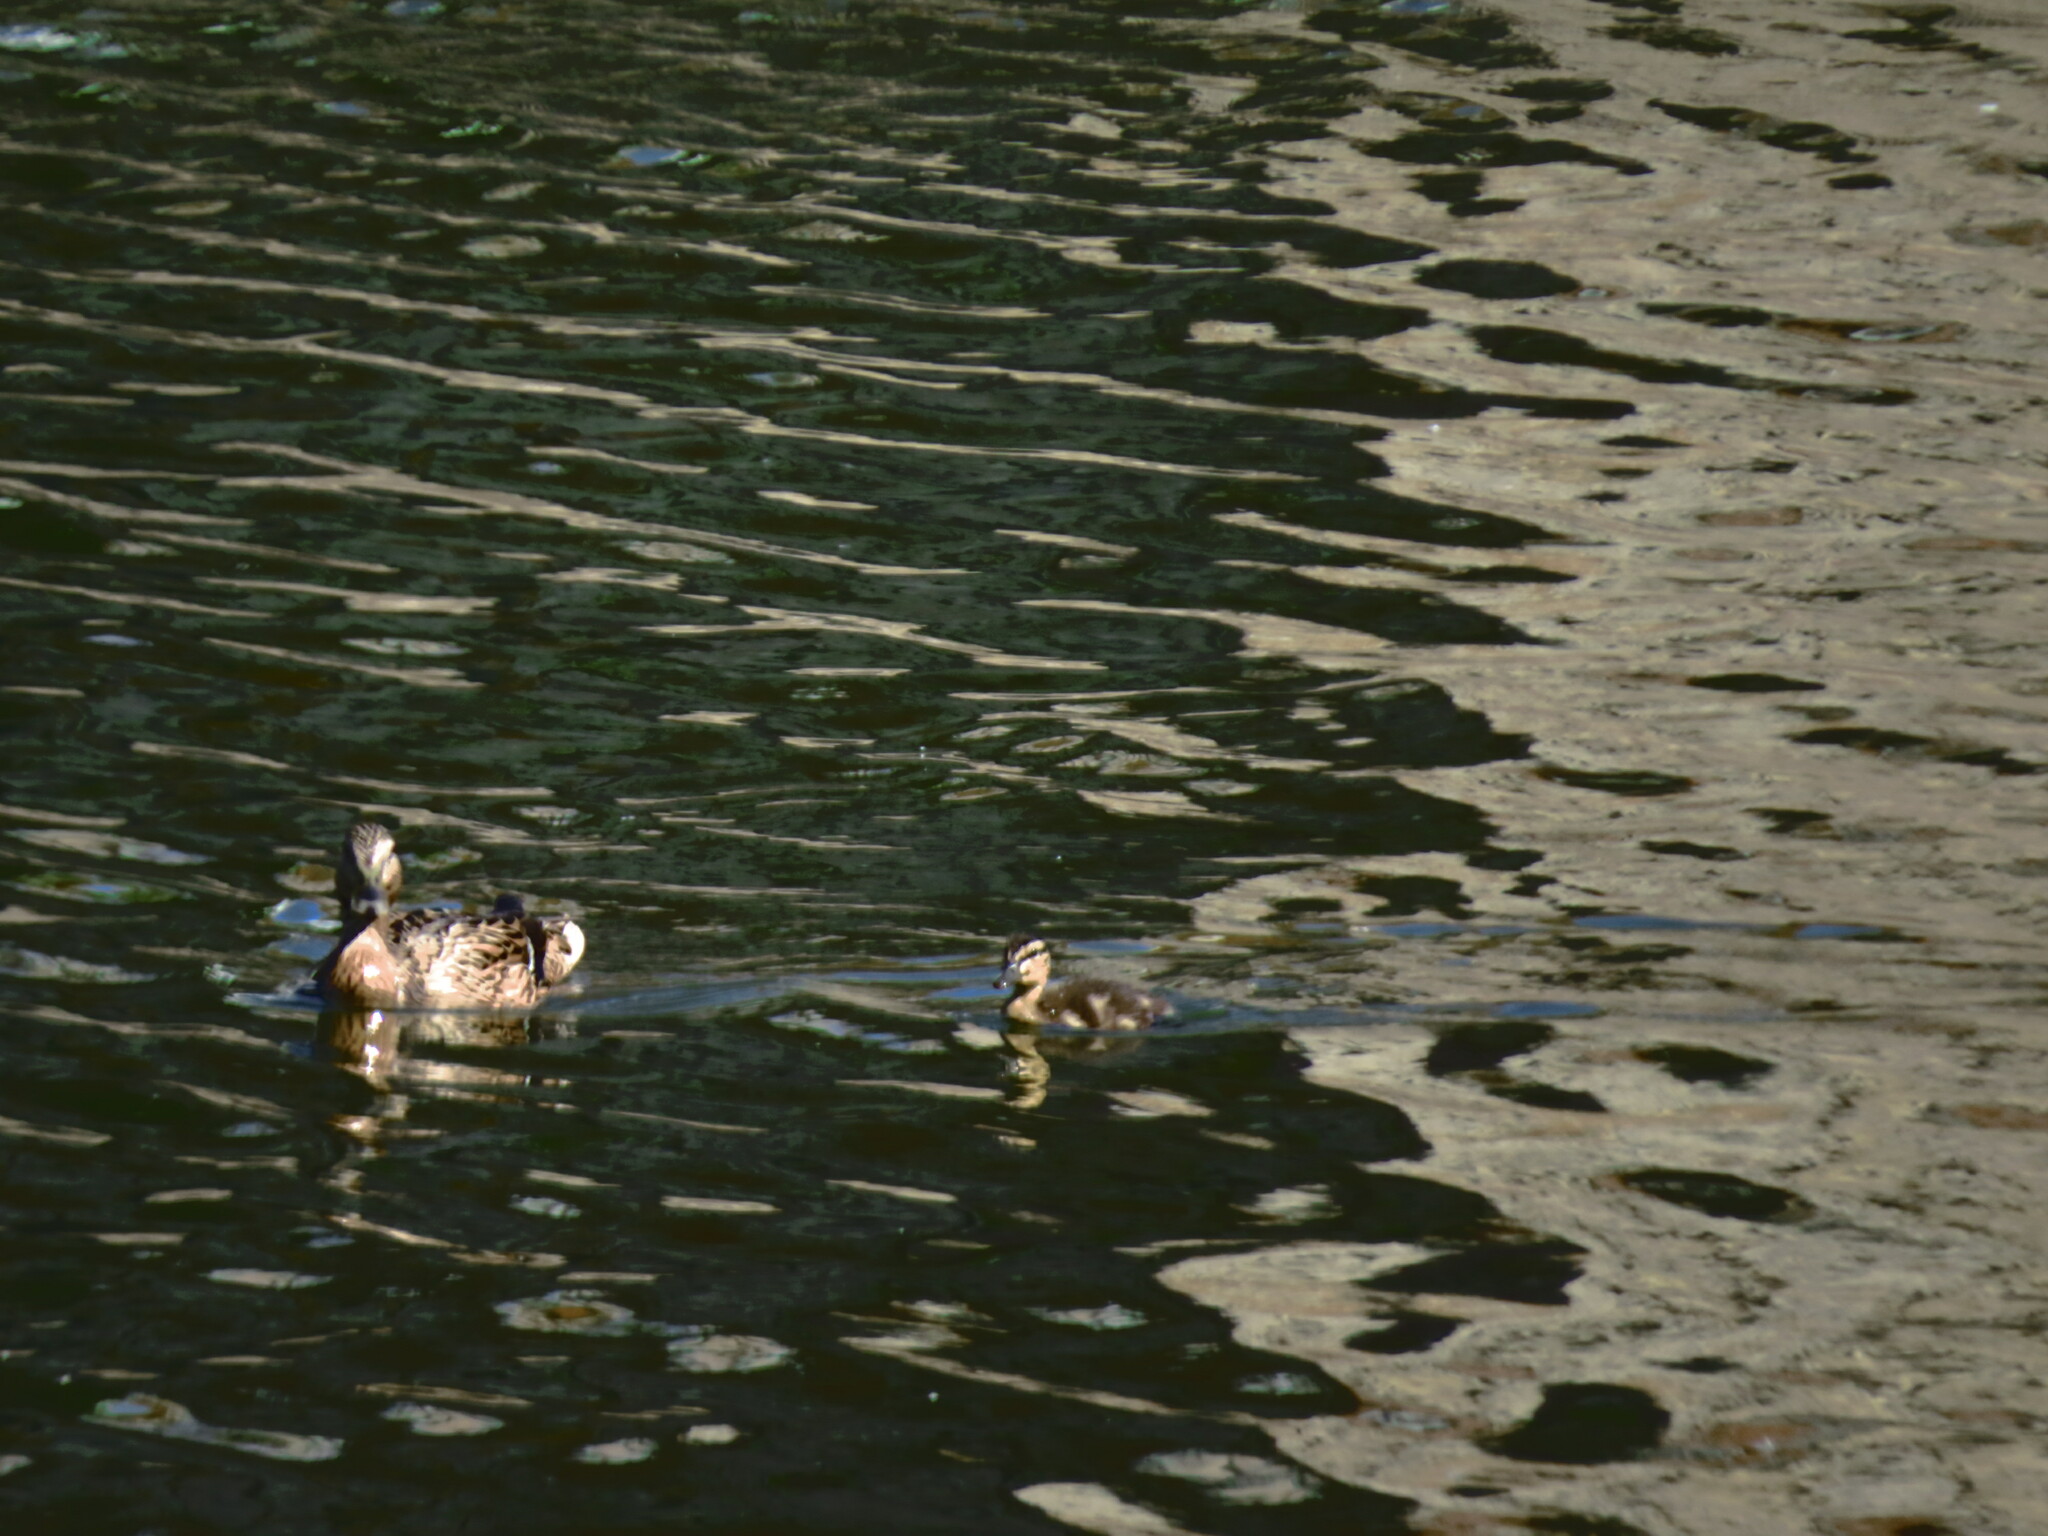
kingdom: Animalia
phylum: Chordata
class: Aves
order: Anseriformes
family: Anatidae
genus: Anas
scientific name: Anas platyrhynchos
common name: Mallard
